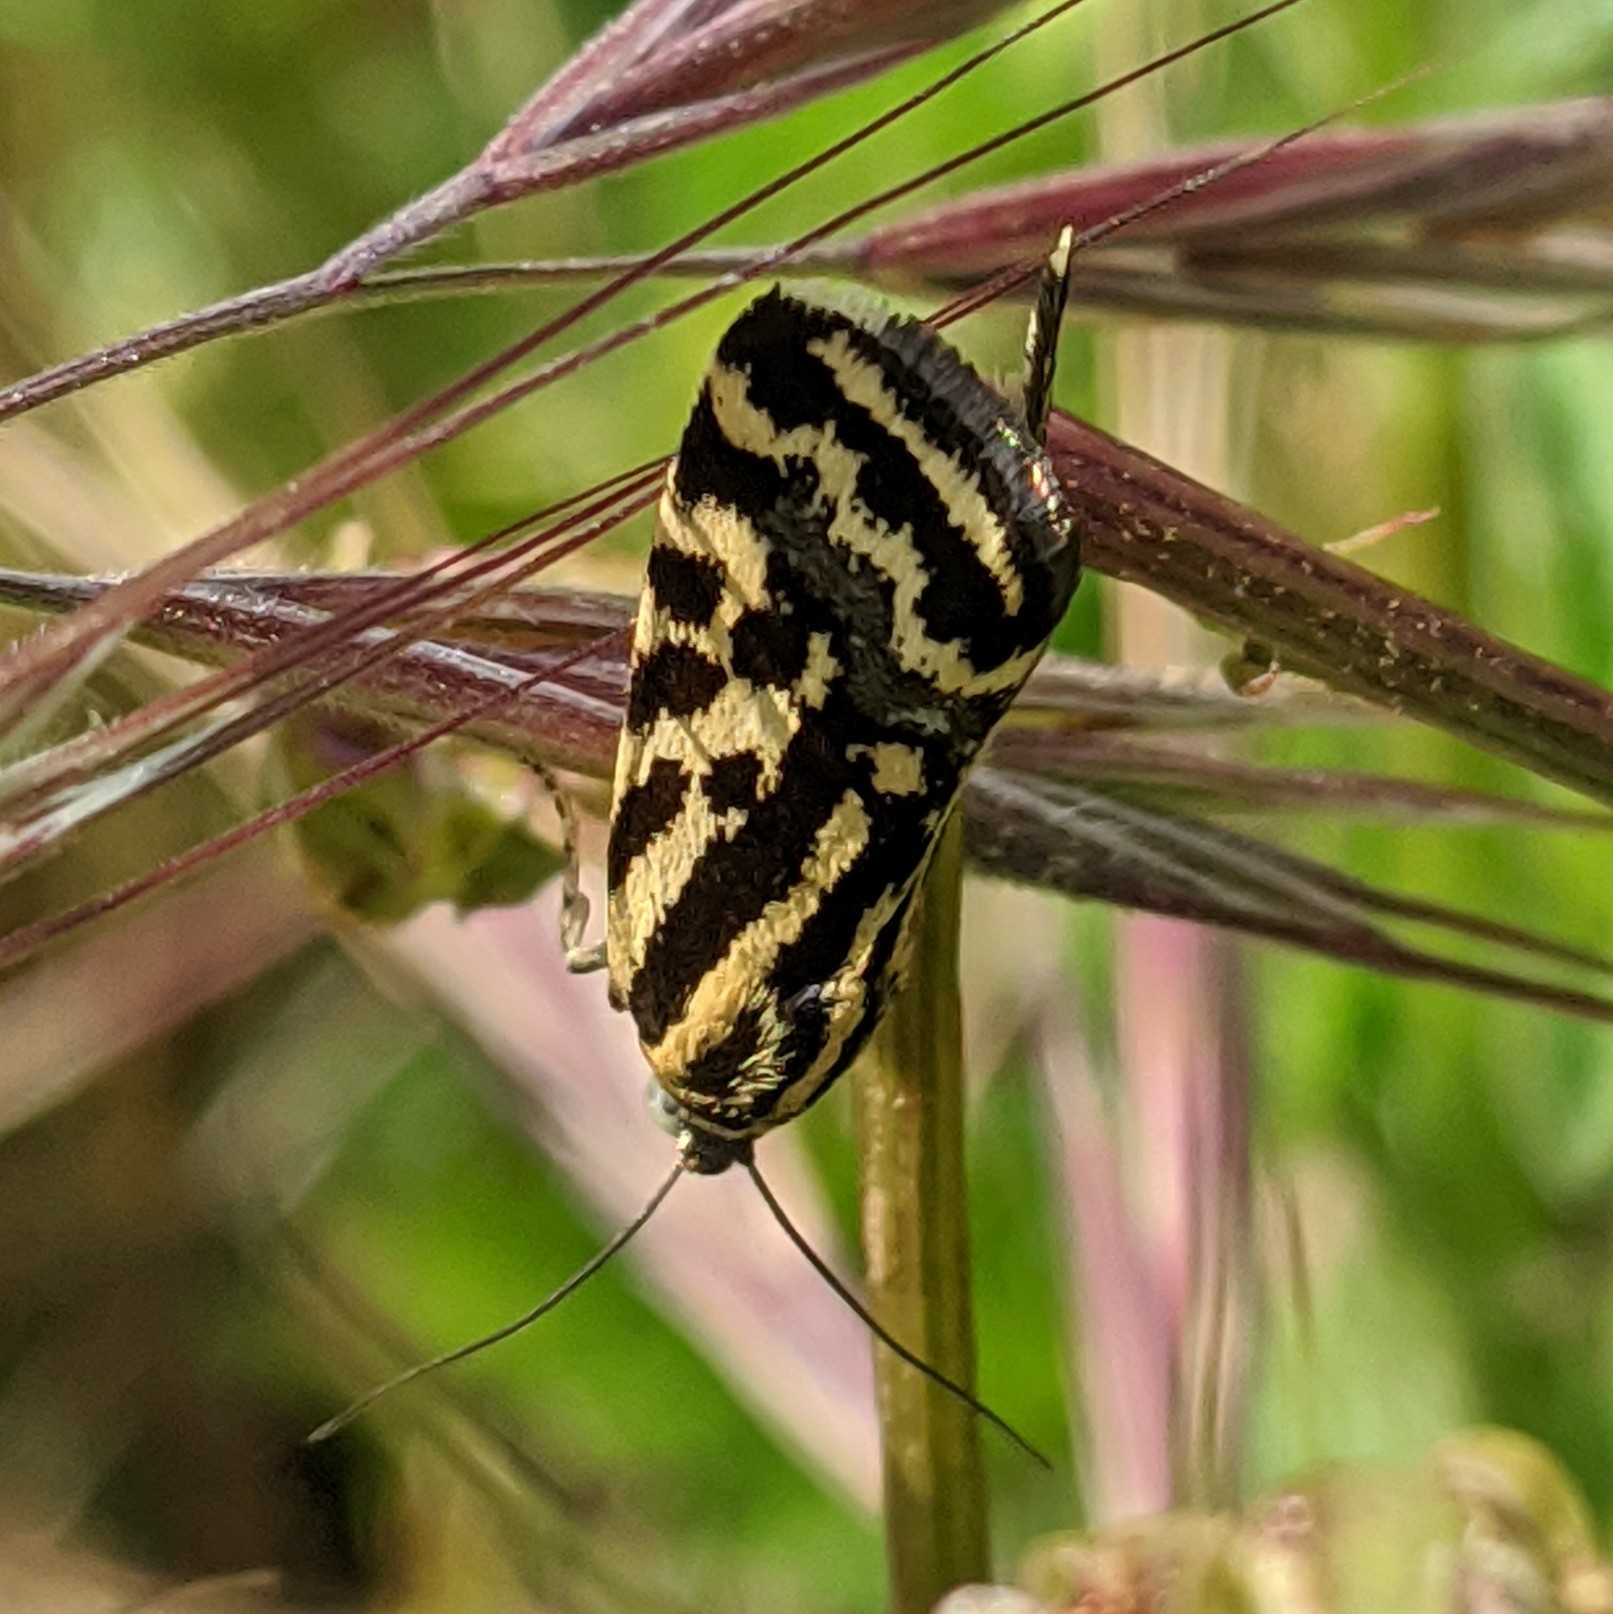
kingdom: Animalia
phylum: Arthropoda
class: Insecta
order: Lepidoptera
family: Noctuidae
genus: Acontia
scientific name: Acontia trabealis
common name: Spotted sulphur
